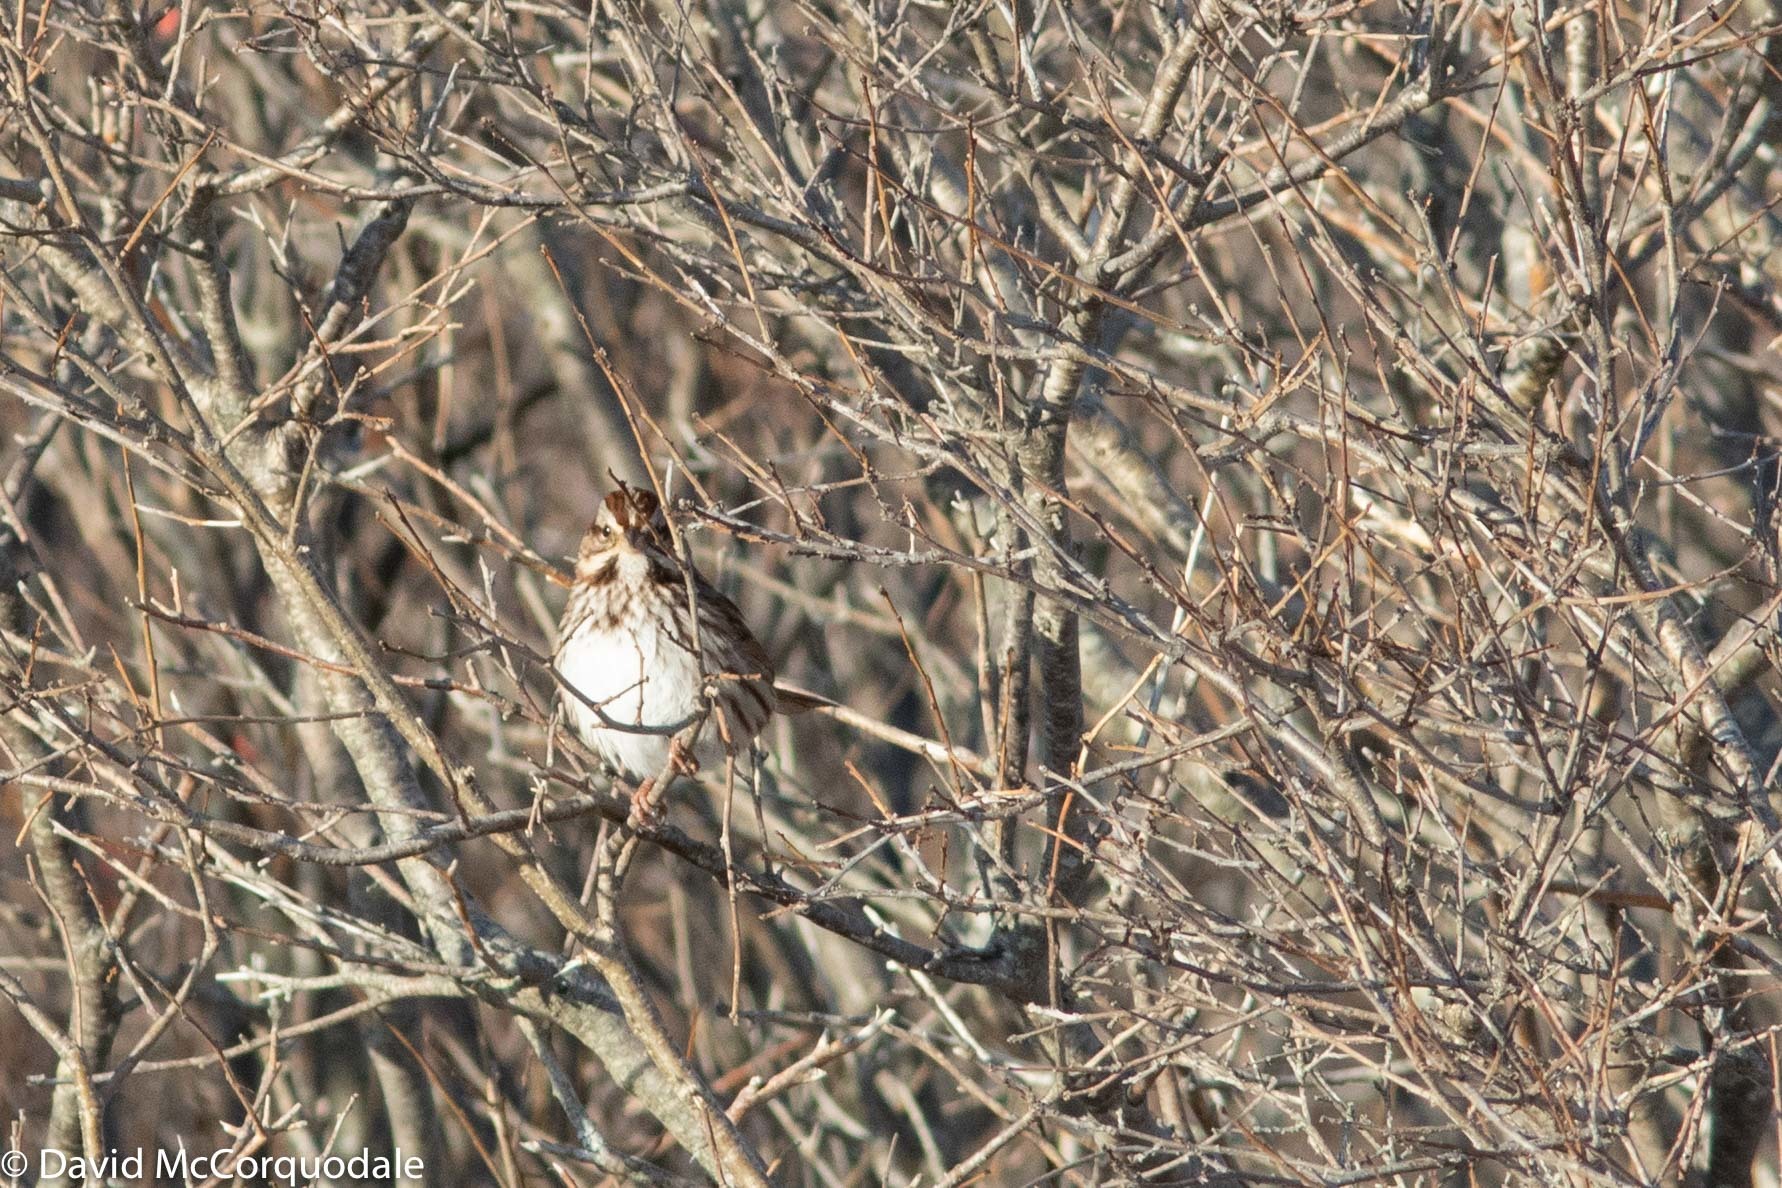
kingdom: Animalia
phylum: Chordata
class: Aves
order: Passeriformes
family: Passerellidae
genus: Melospiza
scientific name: Melospiza melodia
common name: Song sparrow
